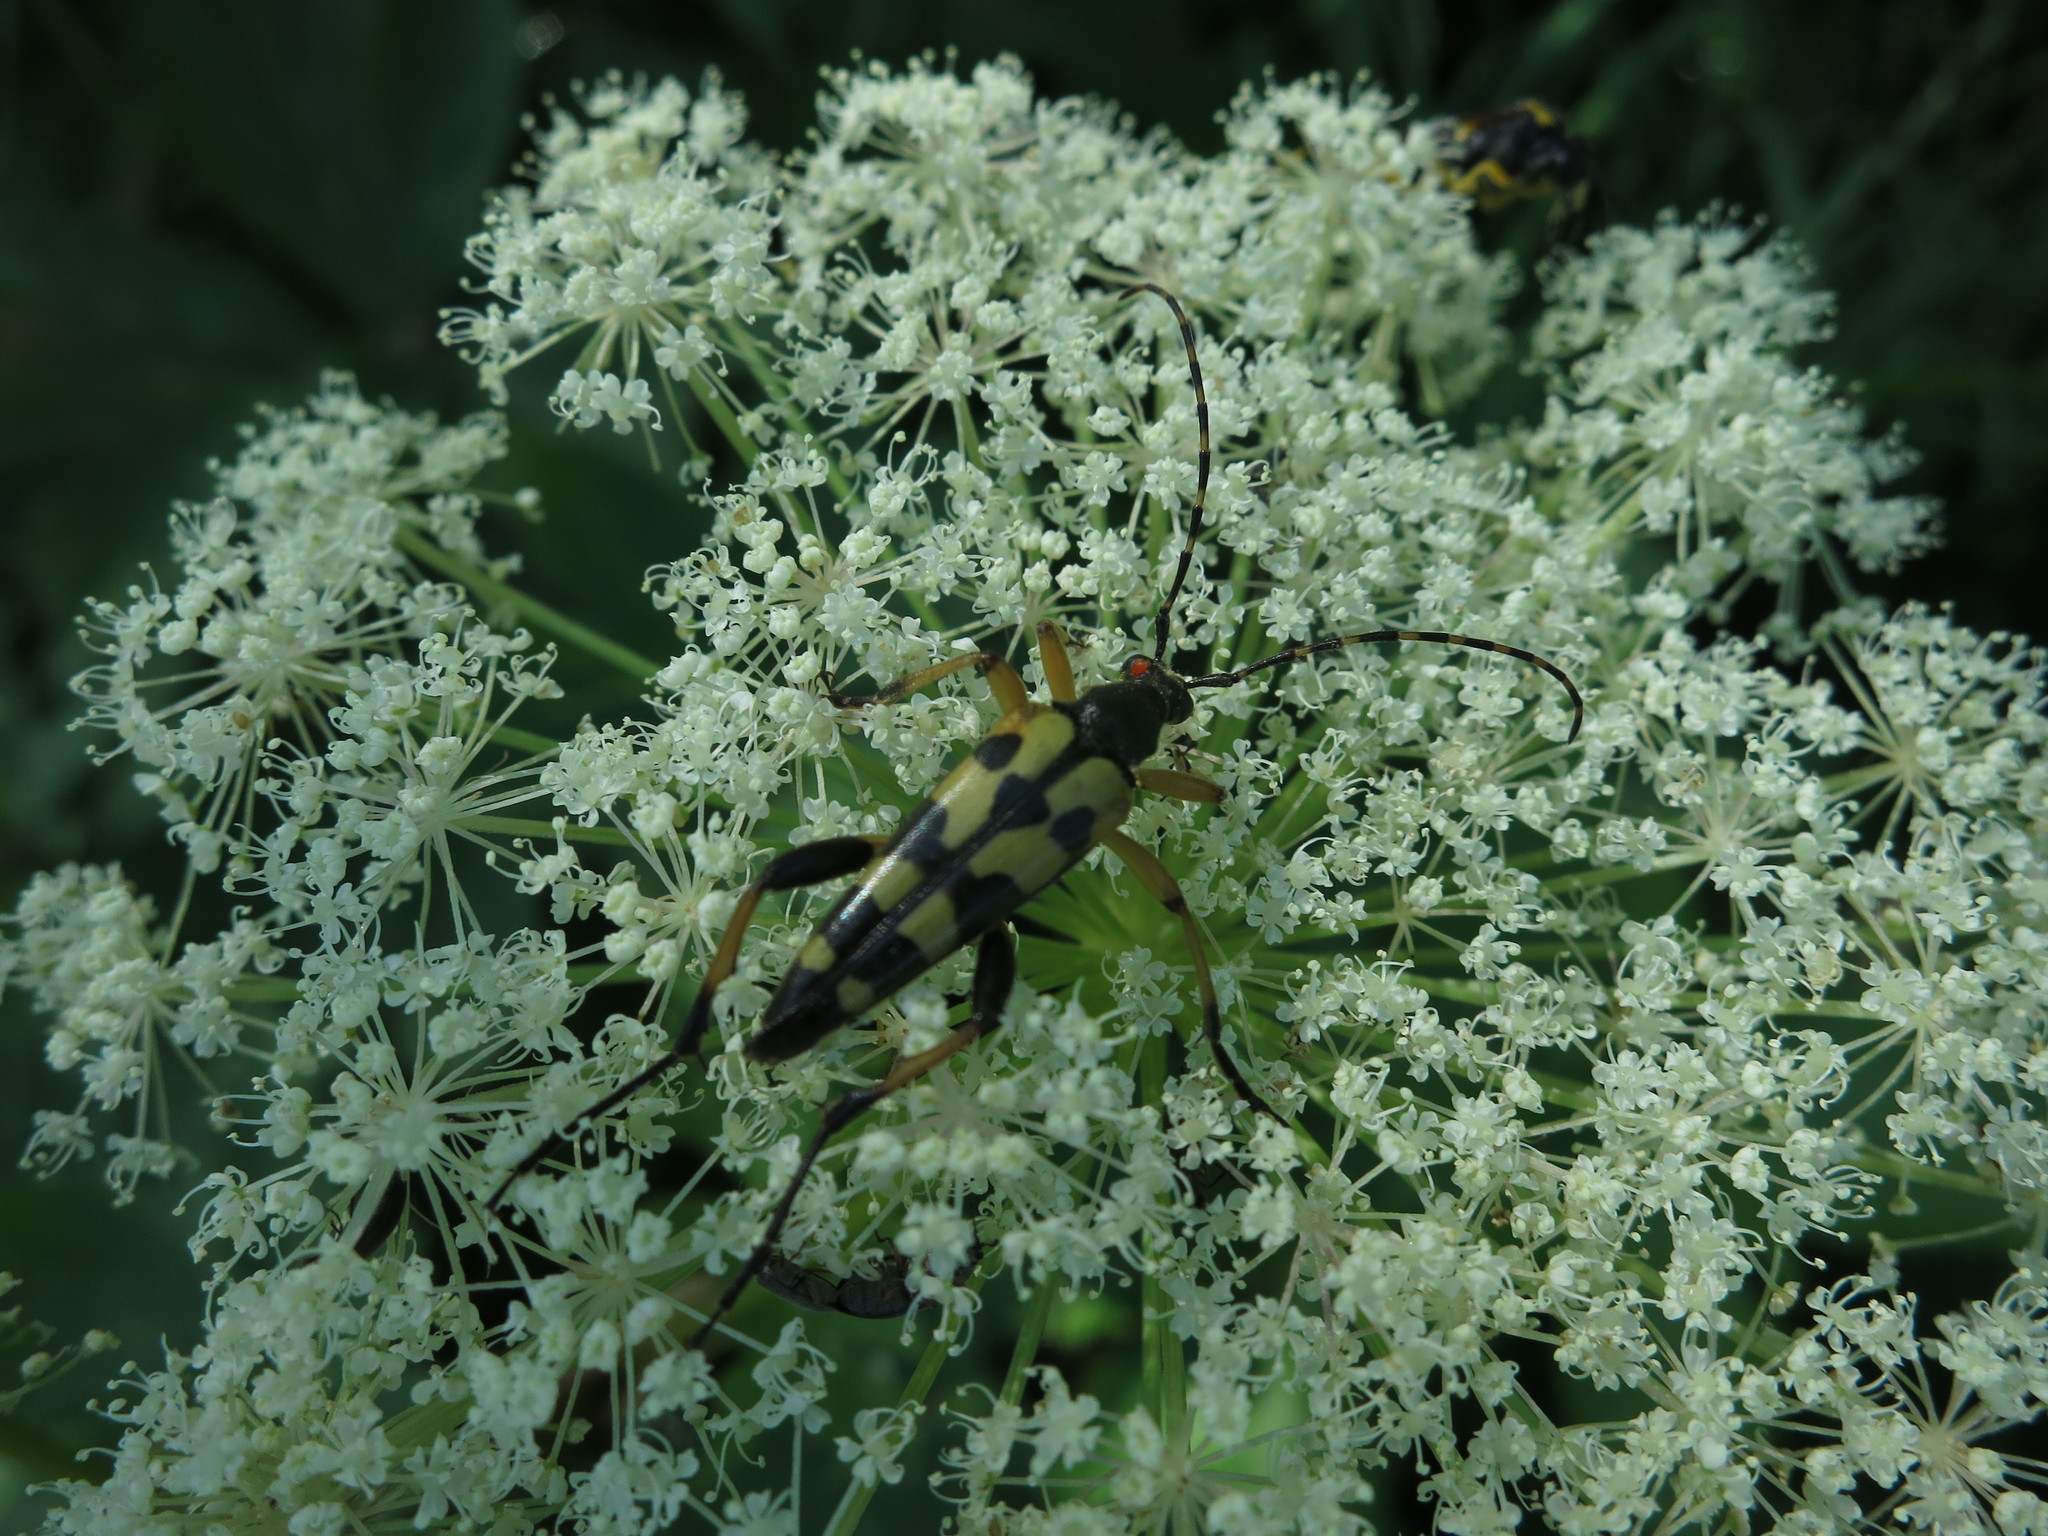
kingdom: Animalia
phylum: Arthropoda
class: Insecta
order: Coleoptera
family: Cerambycidae
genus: Rutpela
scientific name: Rutpela maculata
